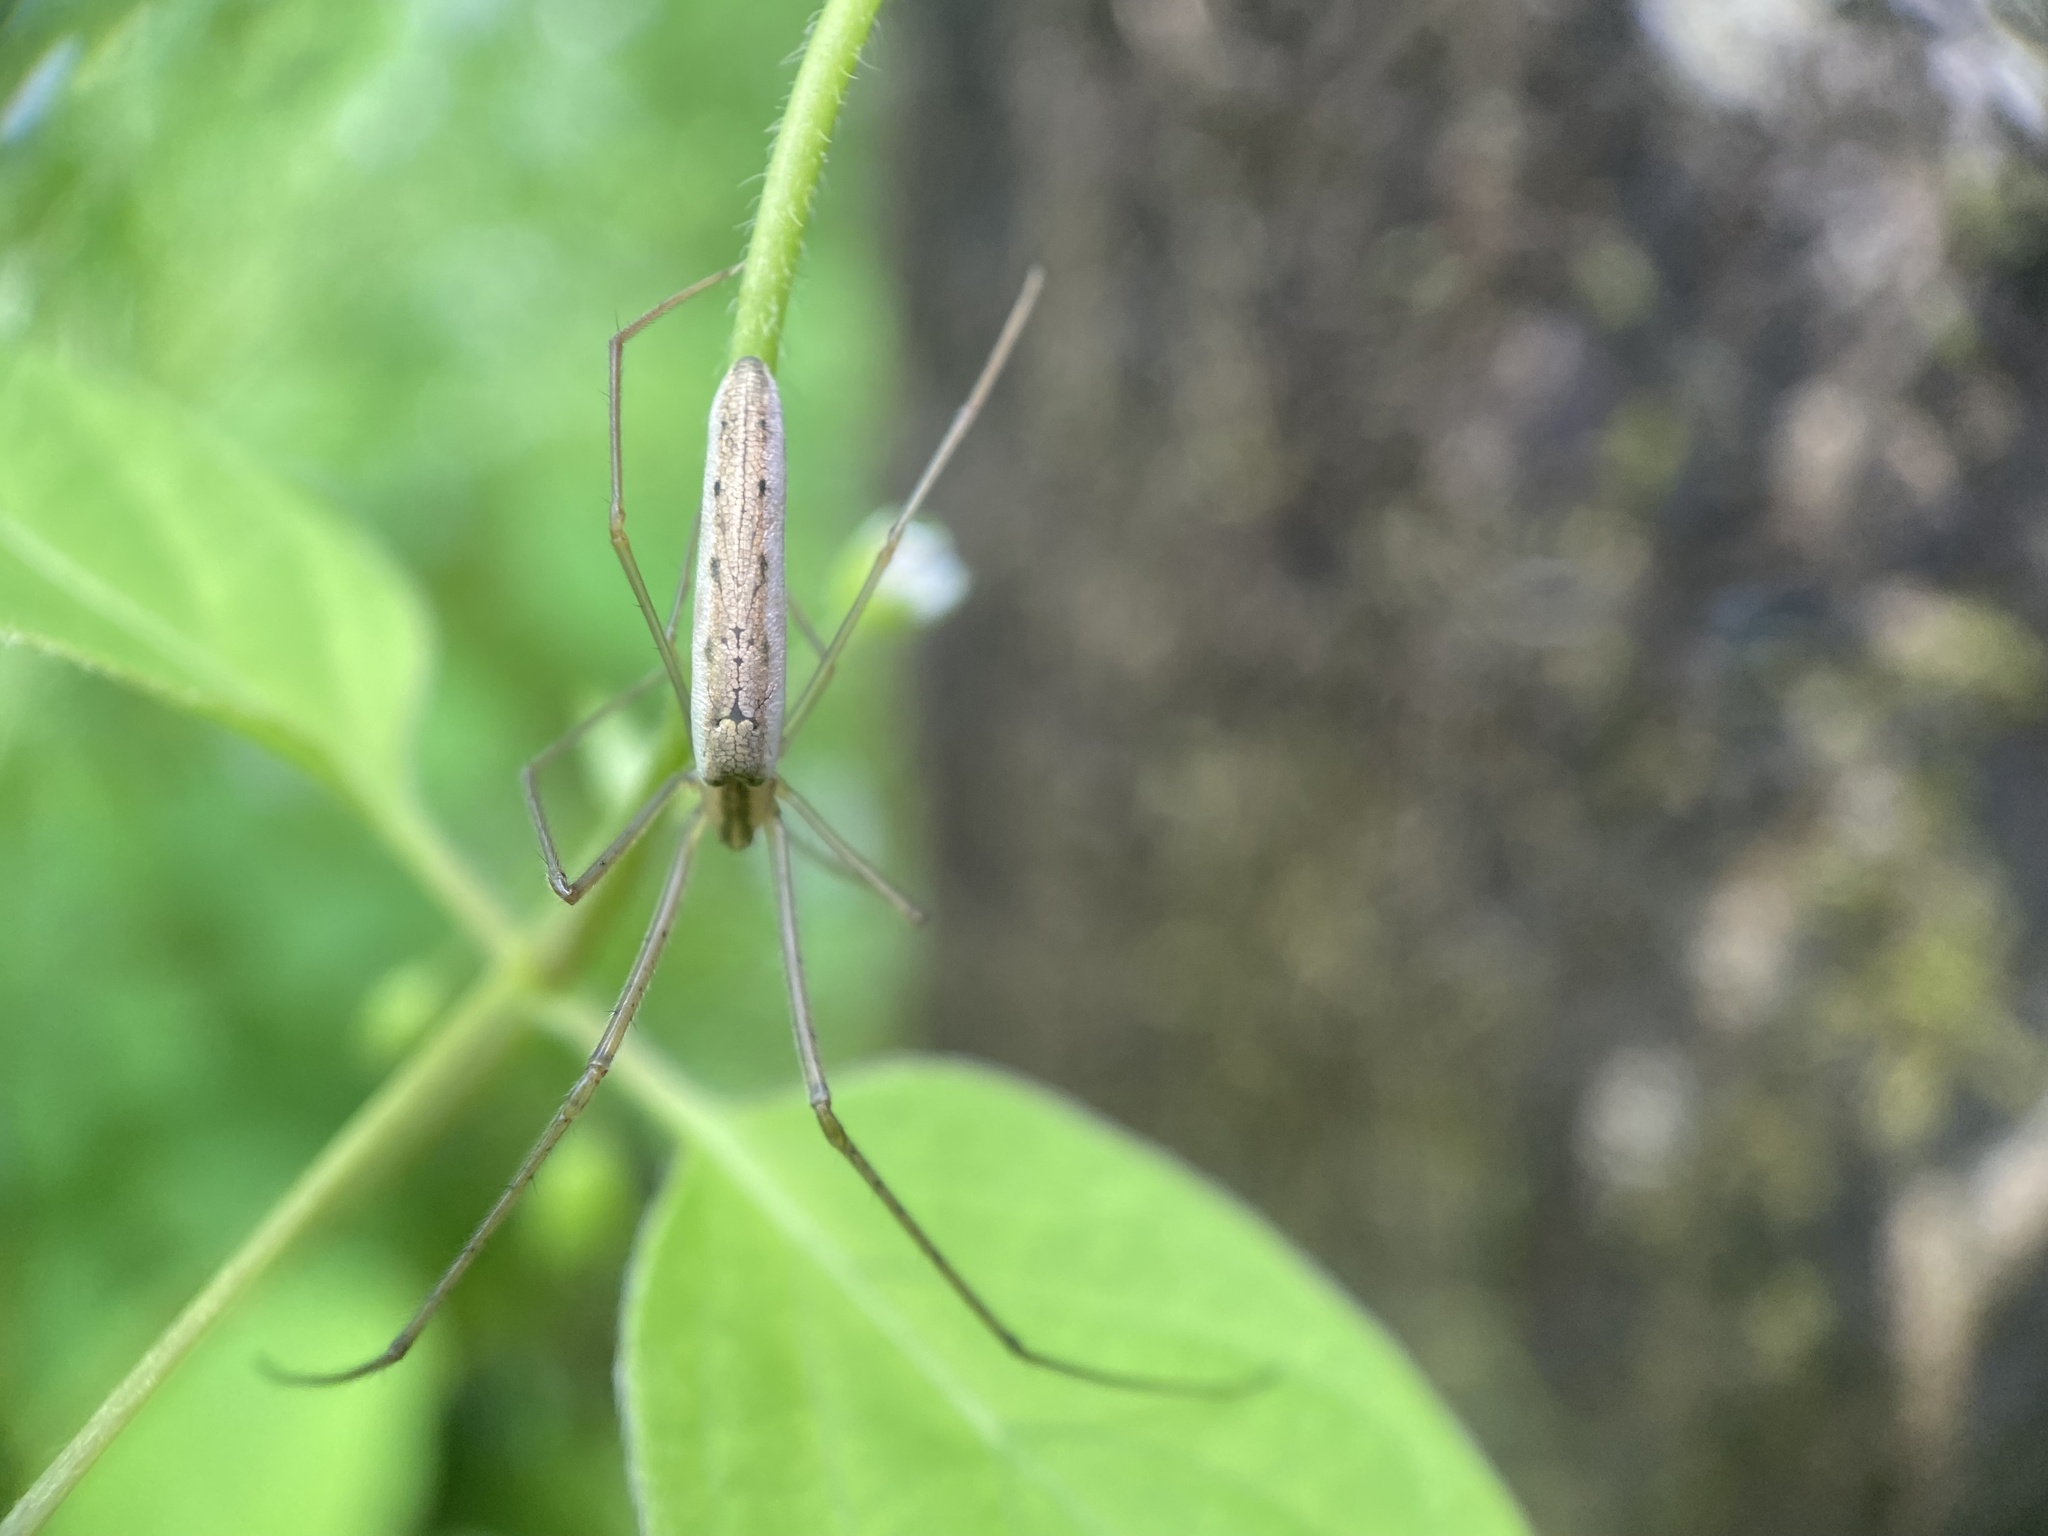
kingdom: Animalia
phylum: Arthropoda
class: Arachnida
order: Araneae
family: Tetragnathidae
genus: Tetragnatha
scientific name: Tetragnatha
